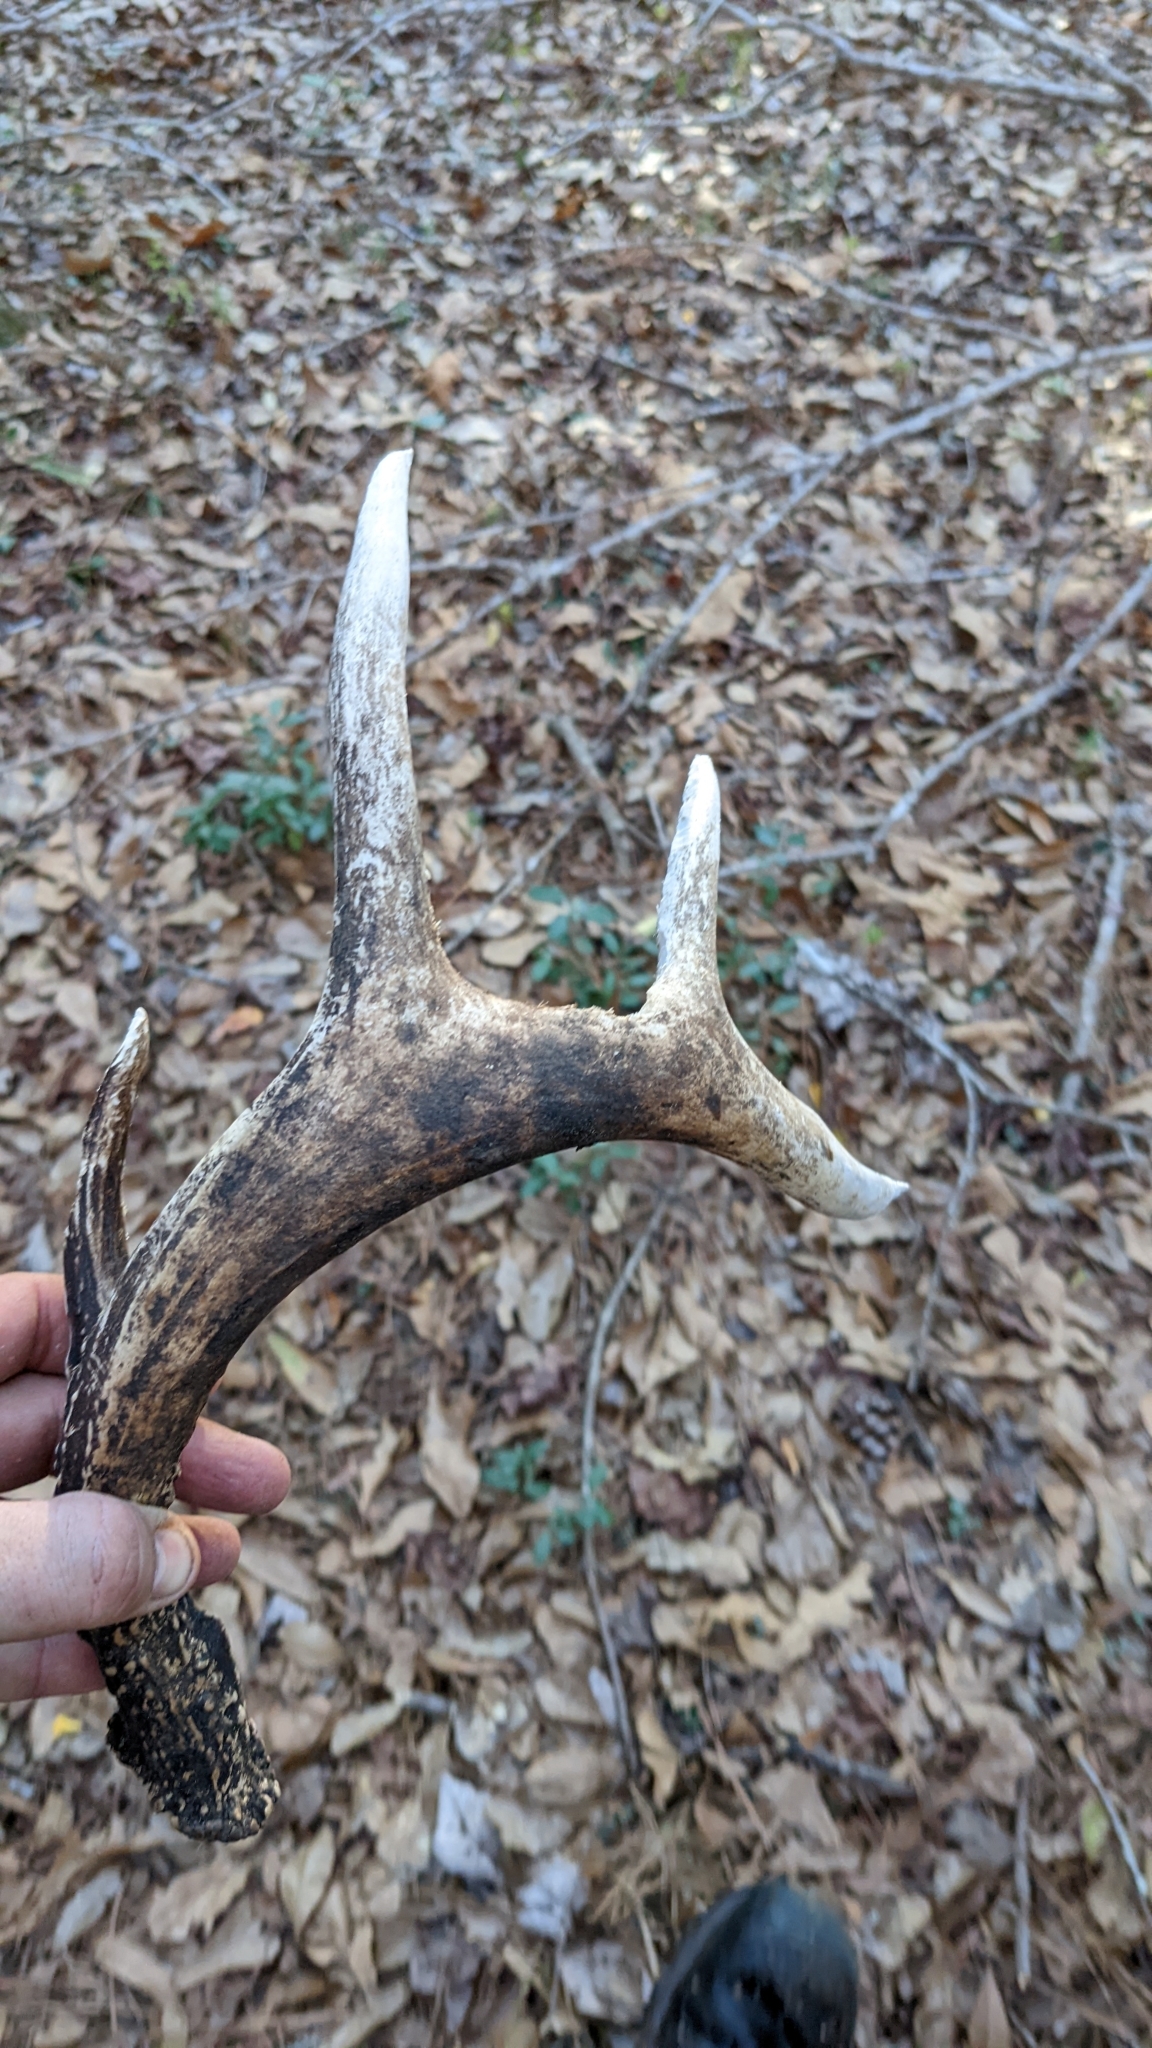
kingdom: Animalia
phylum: Chordata
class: Mammalia
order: Artiodactyla
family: Cervidae
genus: Odocoileus
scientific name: Odocoileus virginianus
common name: White-tailed deer
